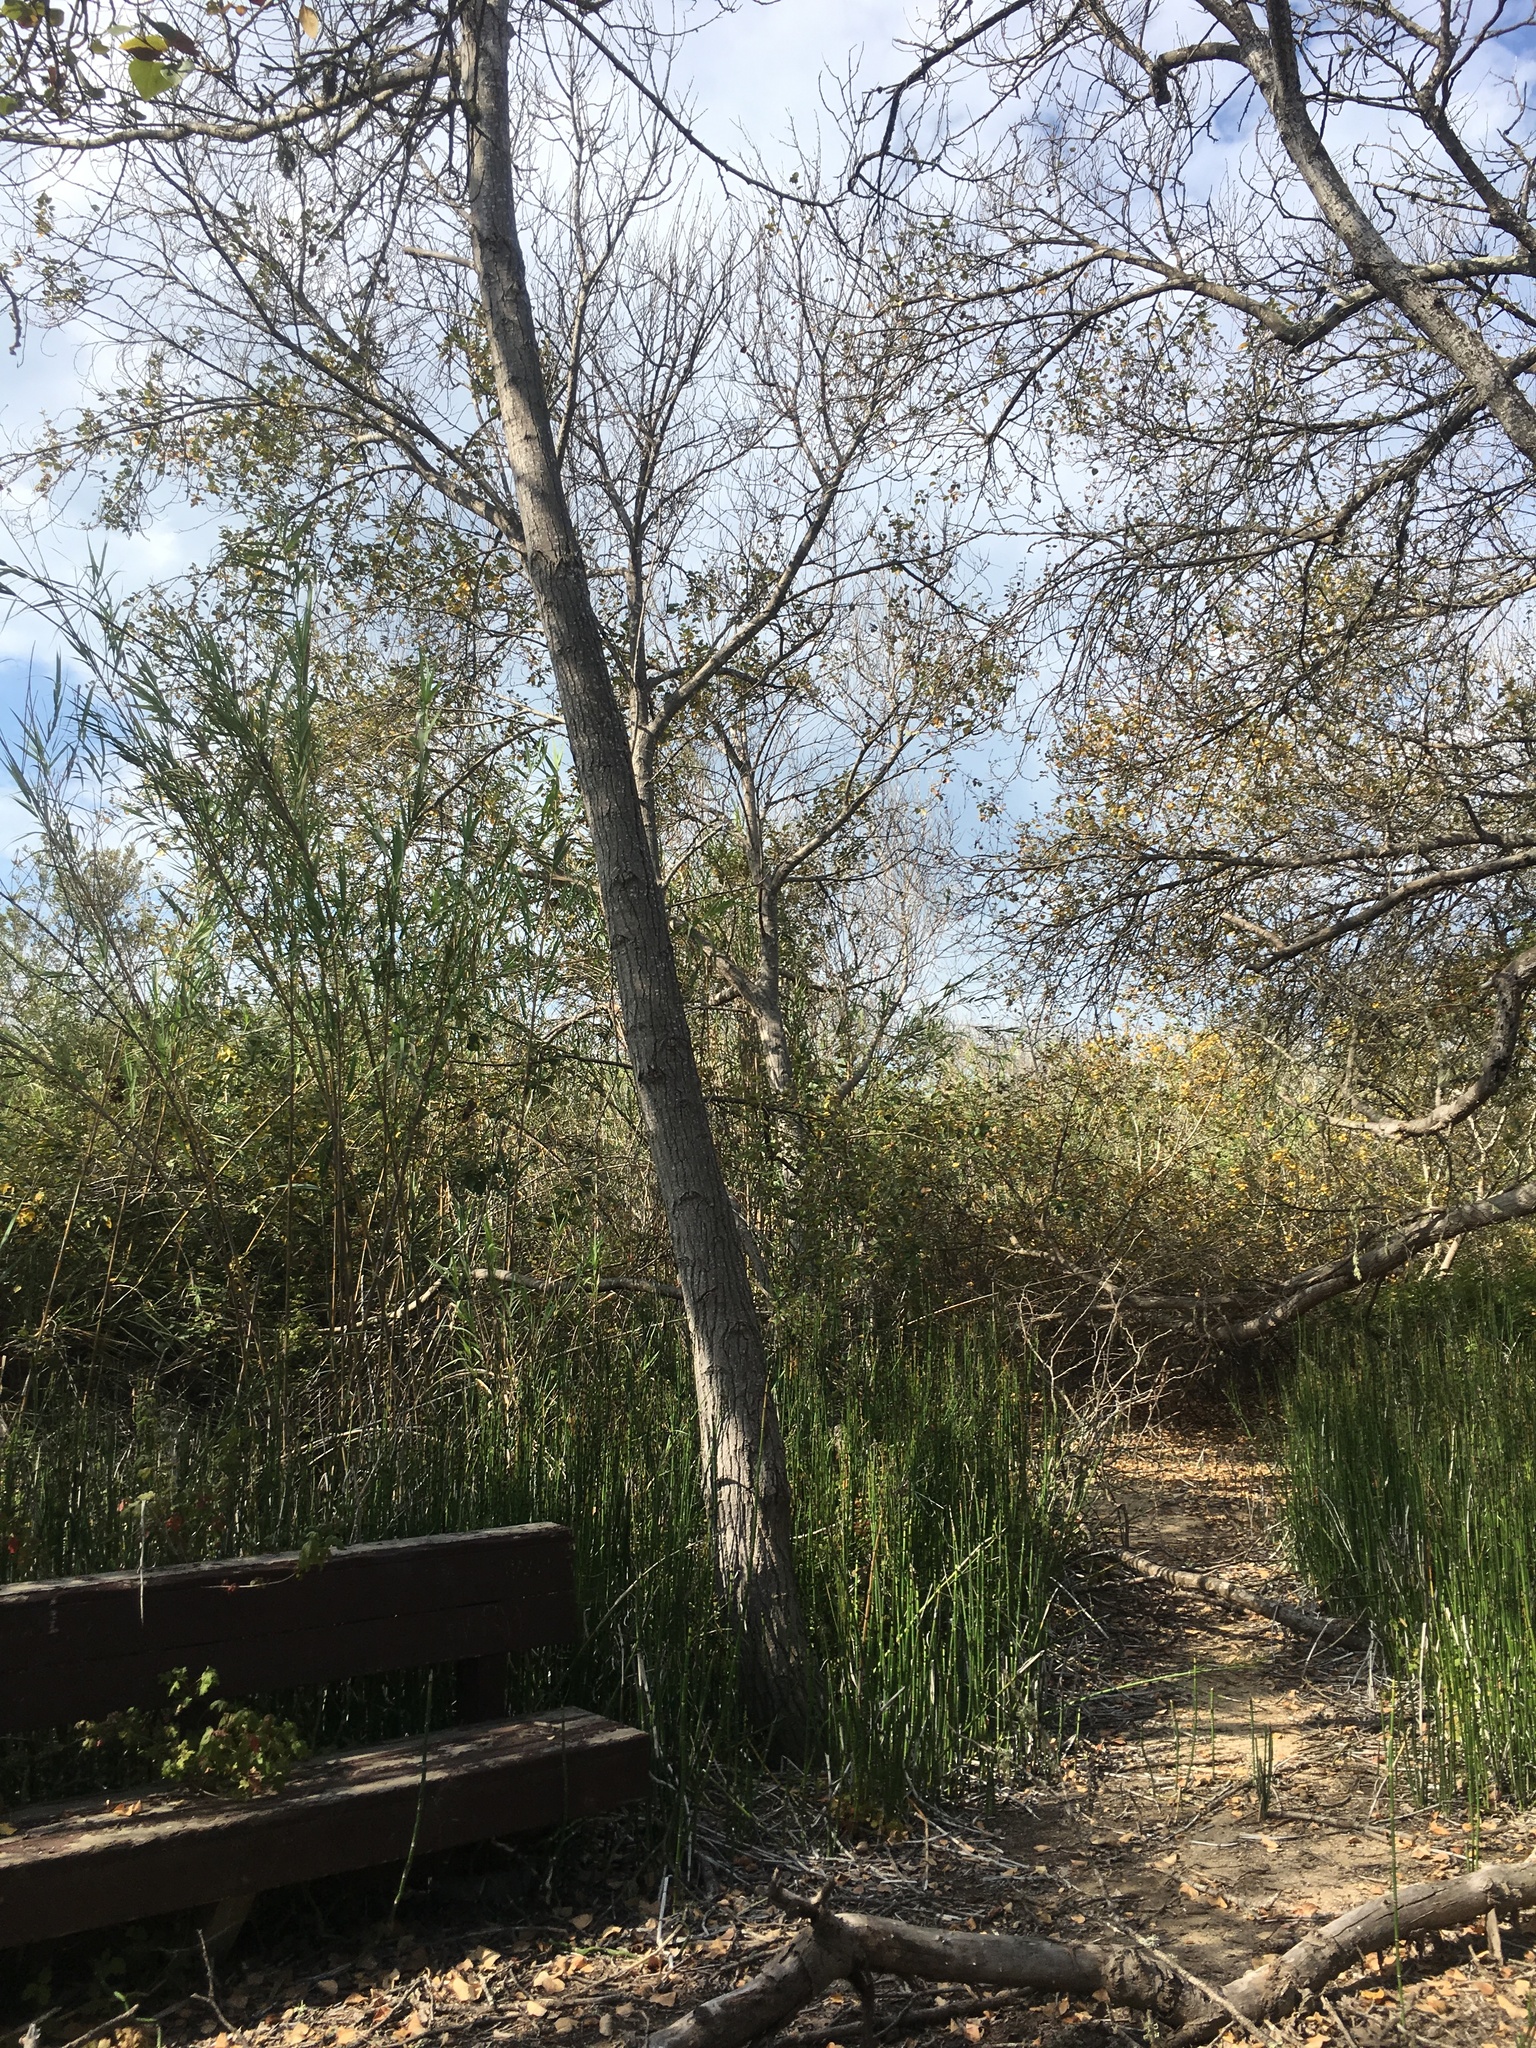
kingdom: Plantae
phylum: Tracheophyta
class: Magnoliopsida
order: Malpighiales
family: Salicaceae
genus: Populus
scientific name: Populus trichocarpa
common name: Black cottonwood
